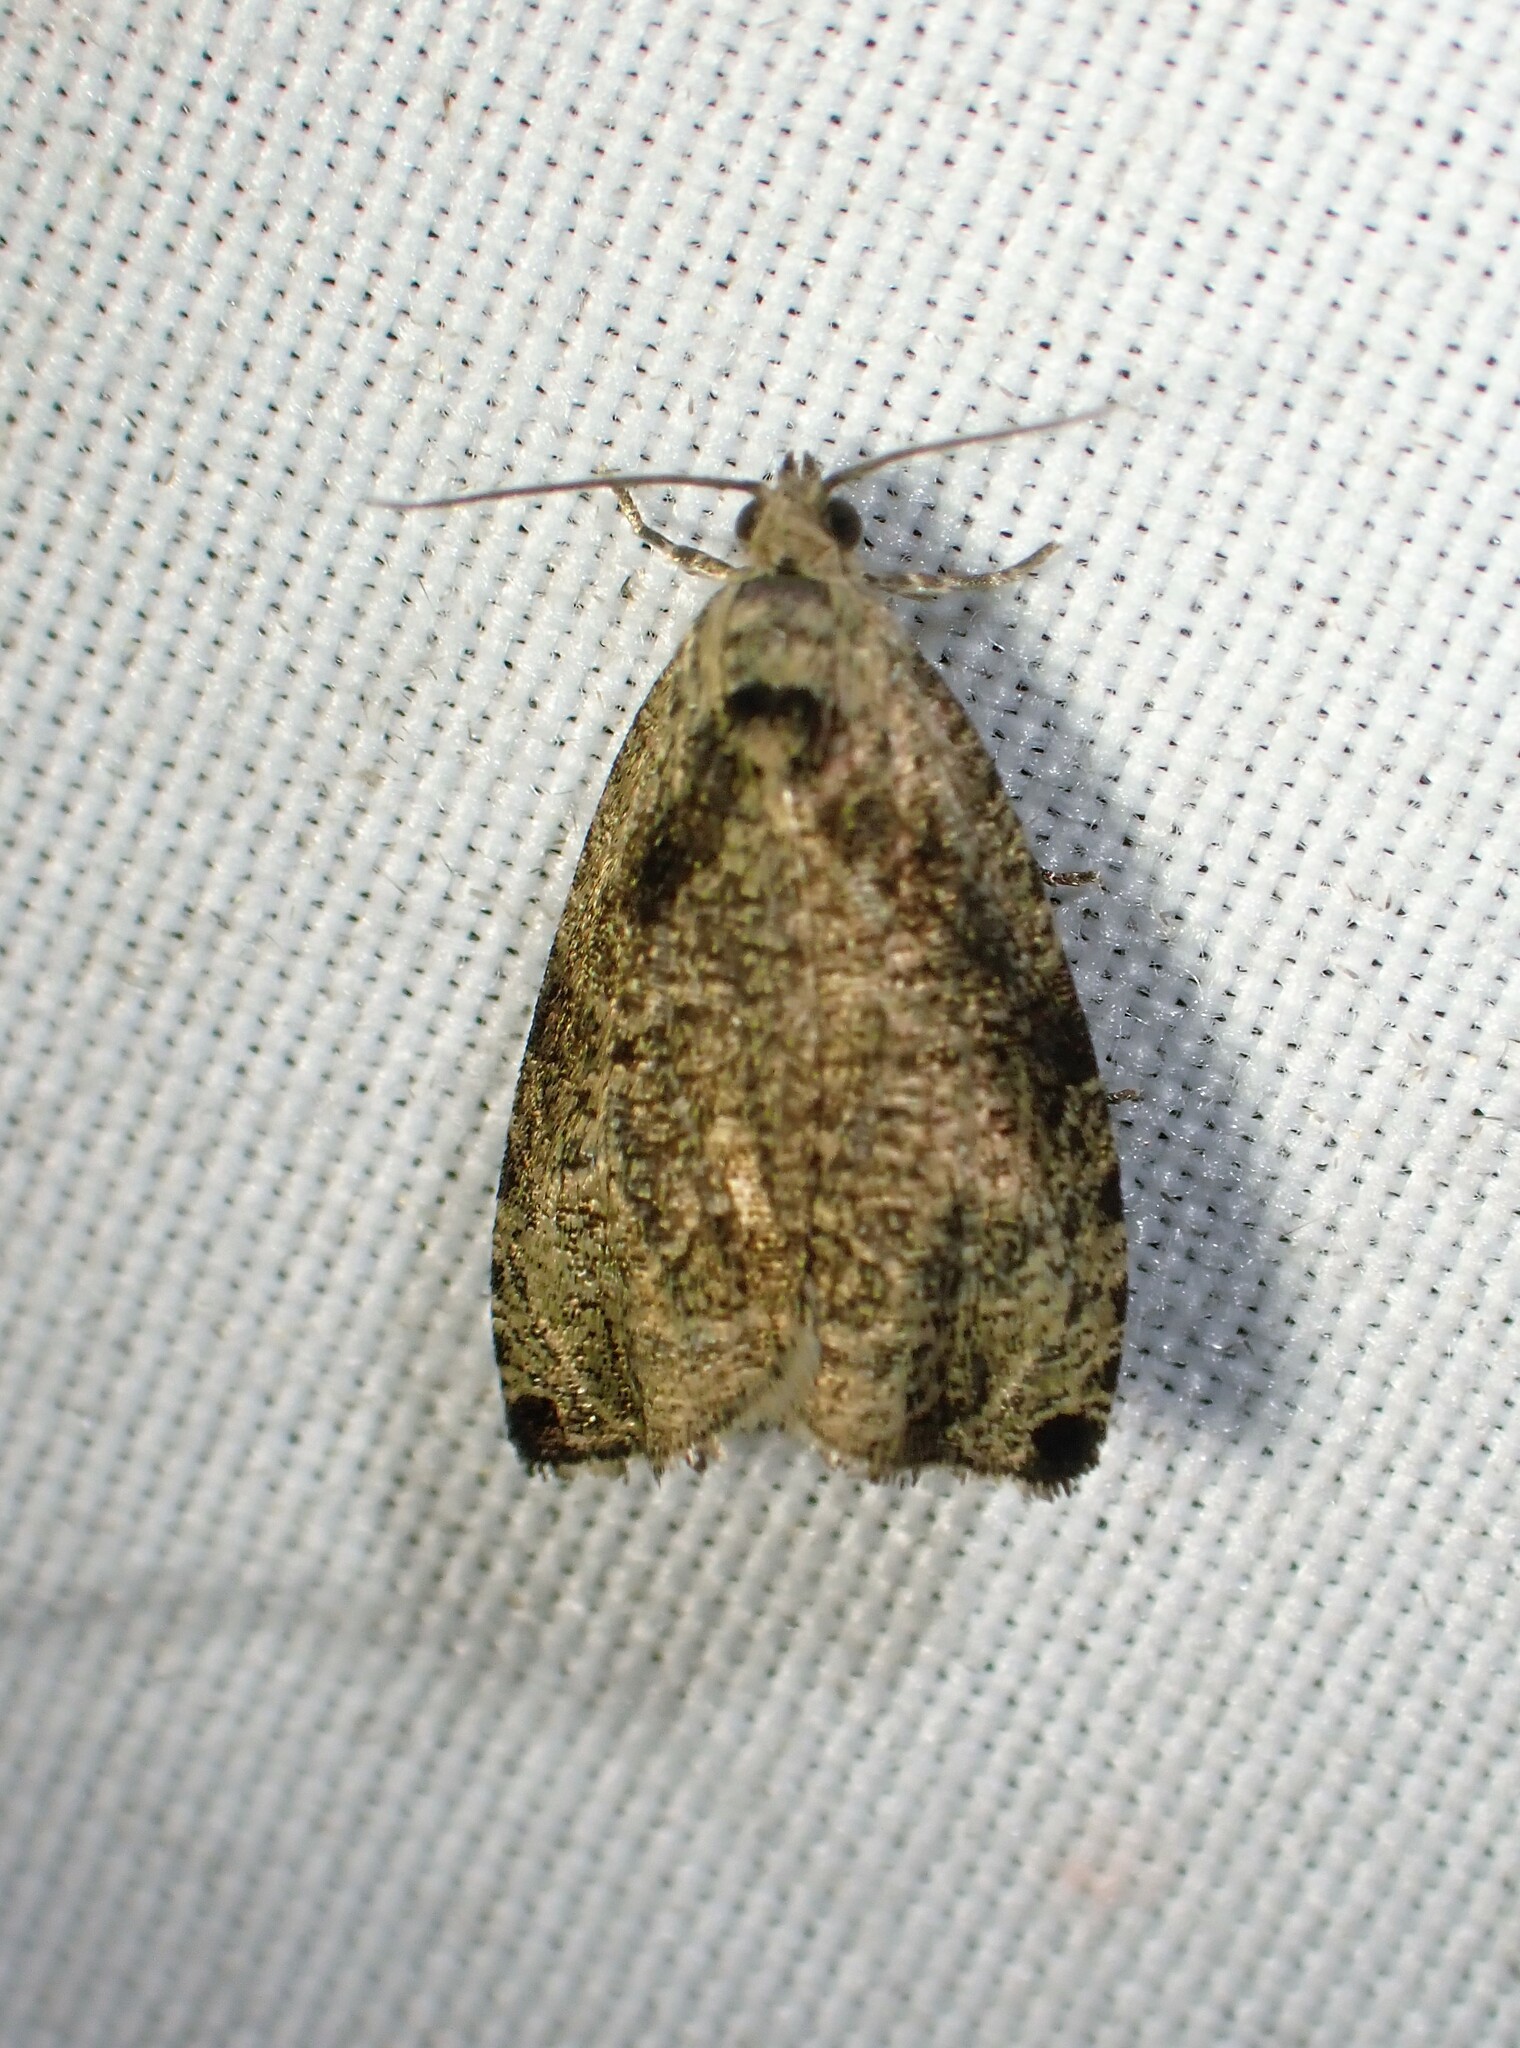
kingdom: Animalia
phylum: Arthropoda
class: Insecta
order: Lepidoptera
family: Tortricidae
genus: Olethreutes
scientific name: Olethreutes exoletum
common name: Wretched olethreutes moth
